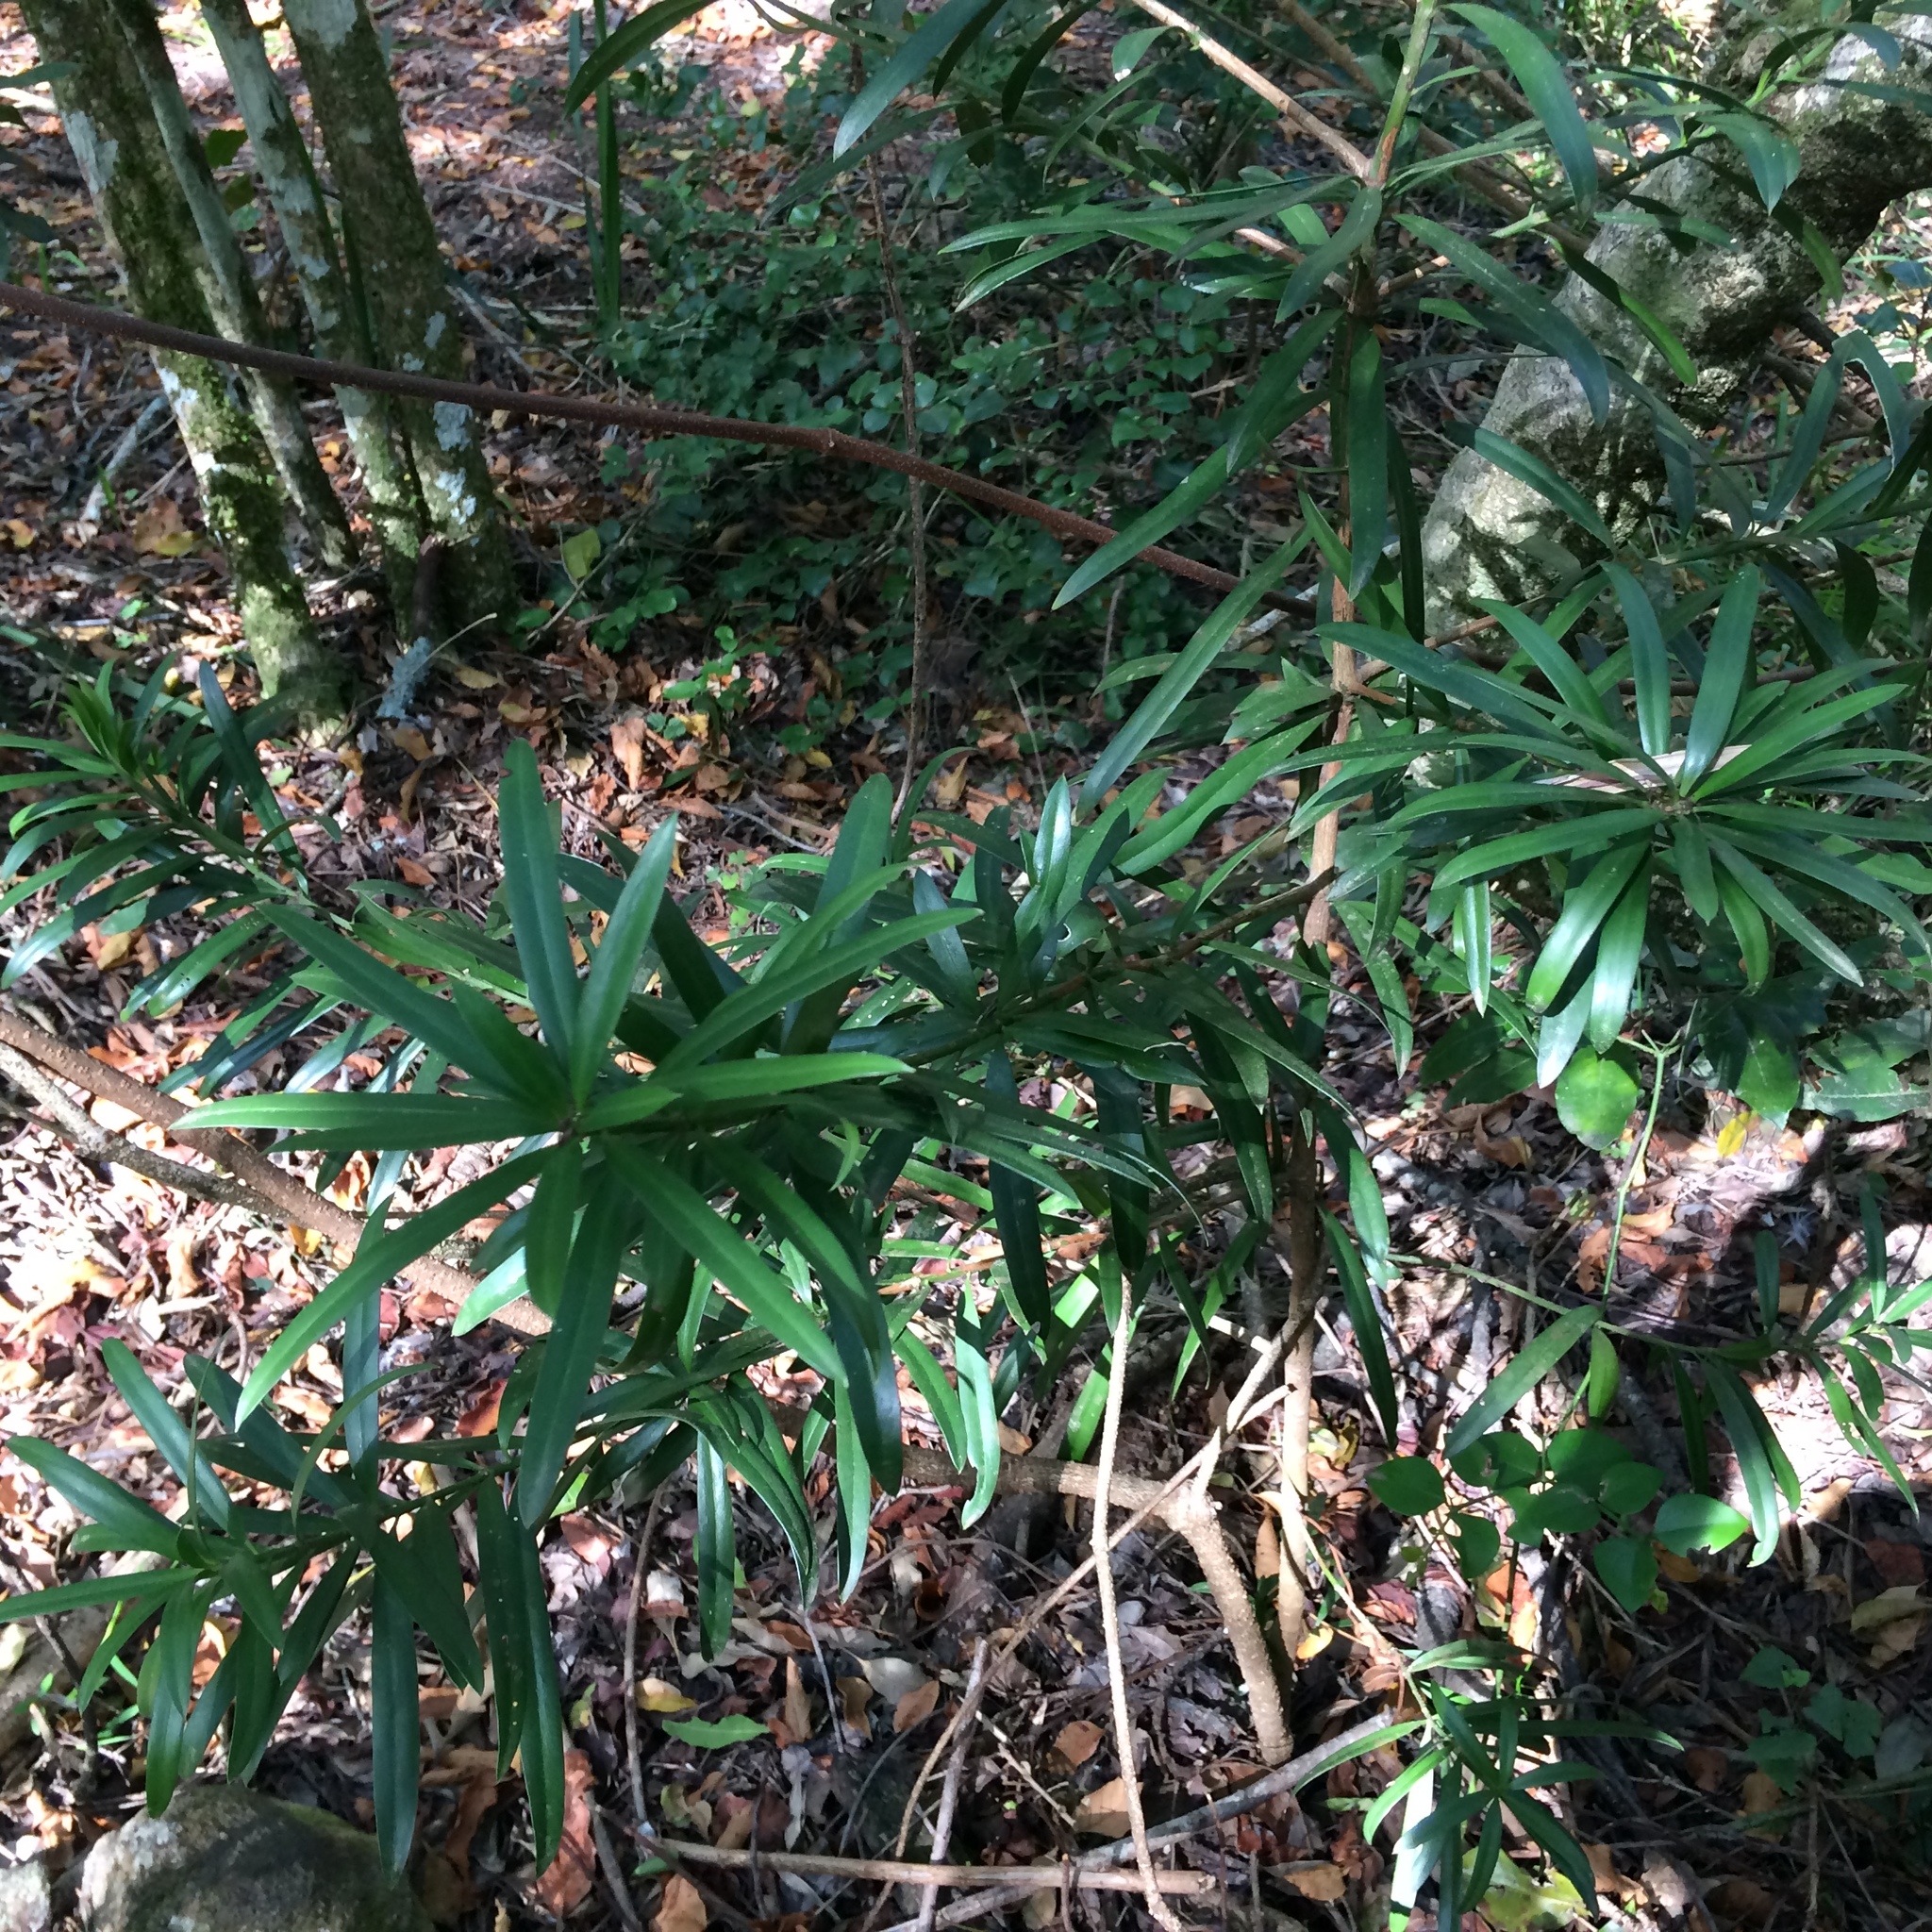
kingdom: Plantae
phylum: Tracheophyta
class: Pinopsida
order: Pinales
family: Podocarpaceae
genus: Podocarpus
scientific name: Podocarpus latifolius
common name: True yellowwood
